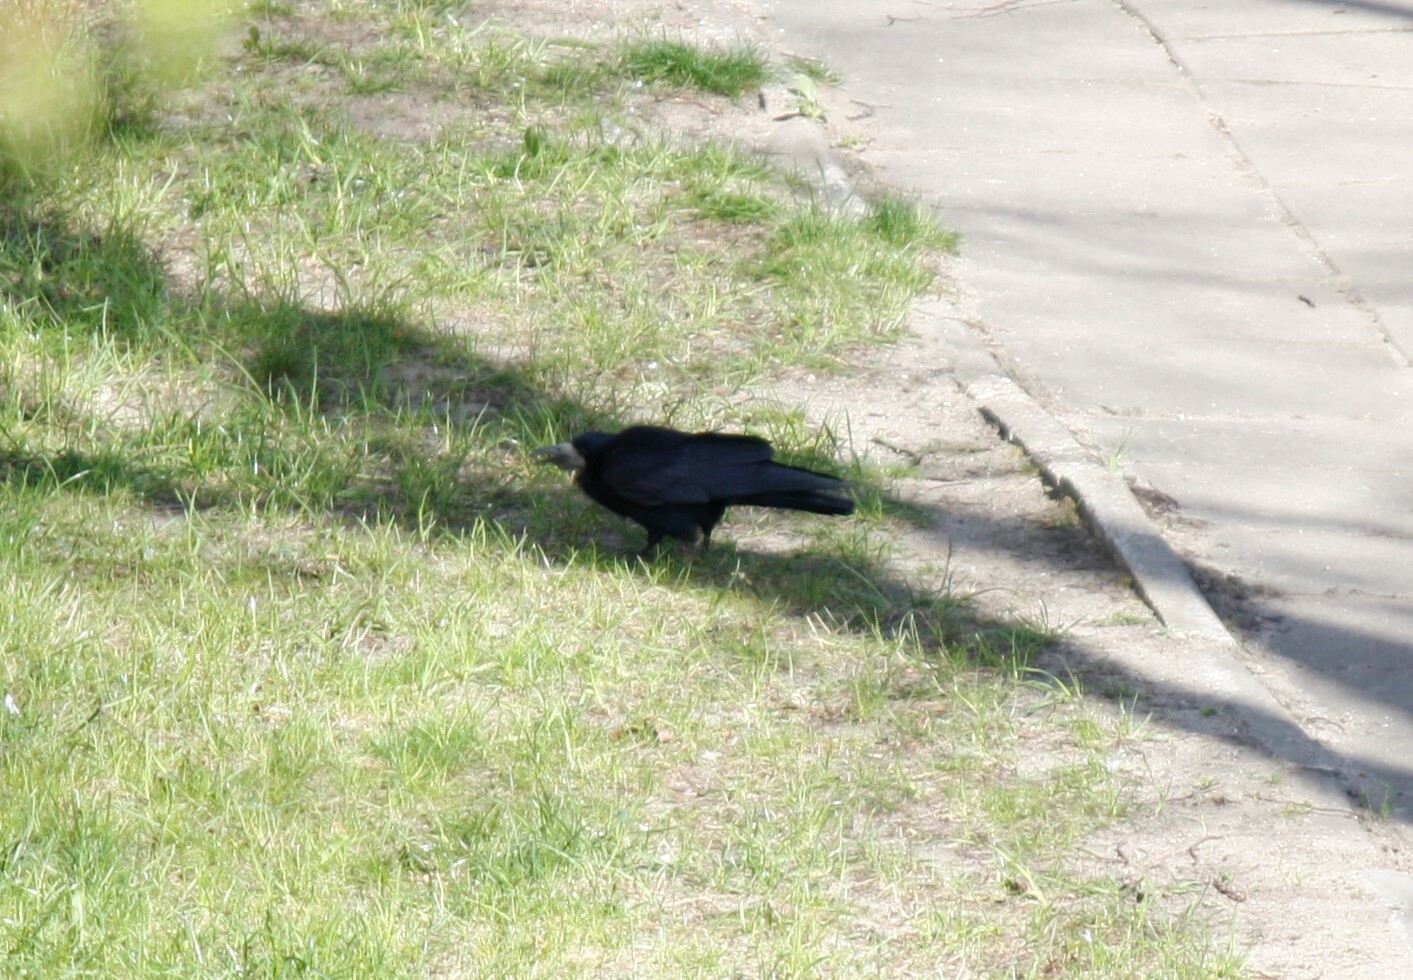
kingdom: Animalia
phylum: Chordata
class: Aves
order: Passeriformes
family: Corvidae
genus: Corvus
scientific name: Corvus frugilegus
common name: Rook
